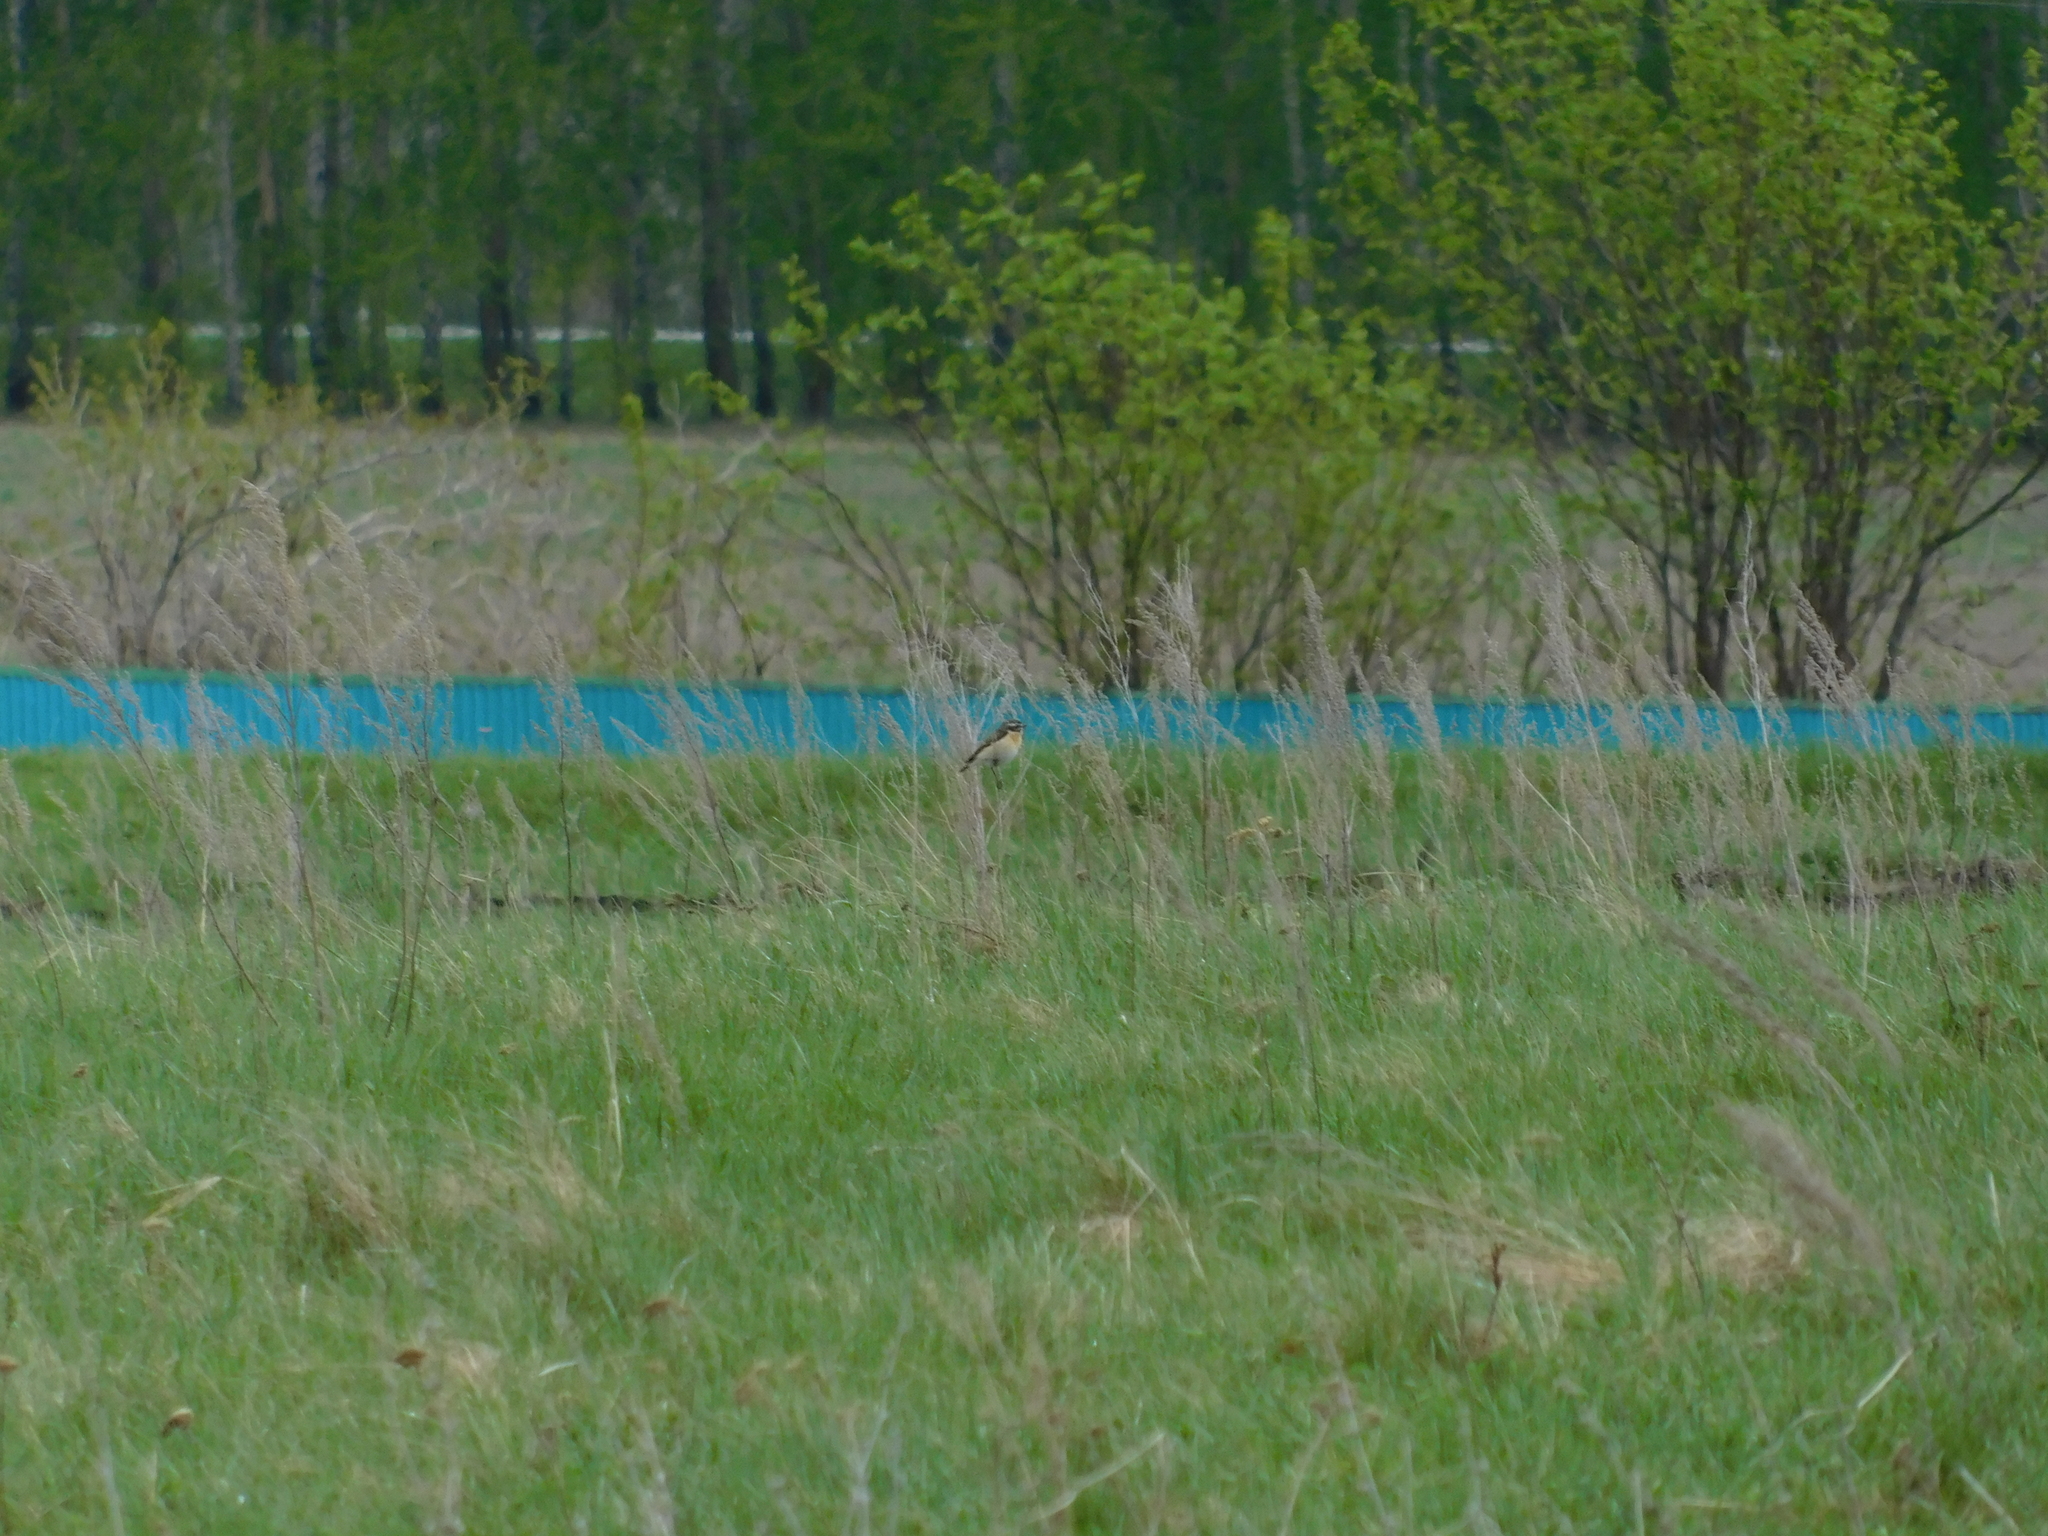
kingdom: Animalia
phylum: Chordata
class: Aves
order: Passeriformes
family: Muscicapidae
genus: Saxicola
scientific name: Saxicola rubetra
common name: Whinchat
